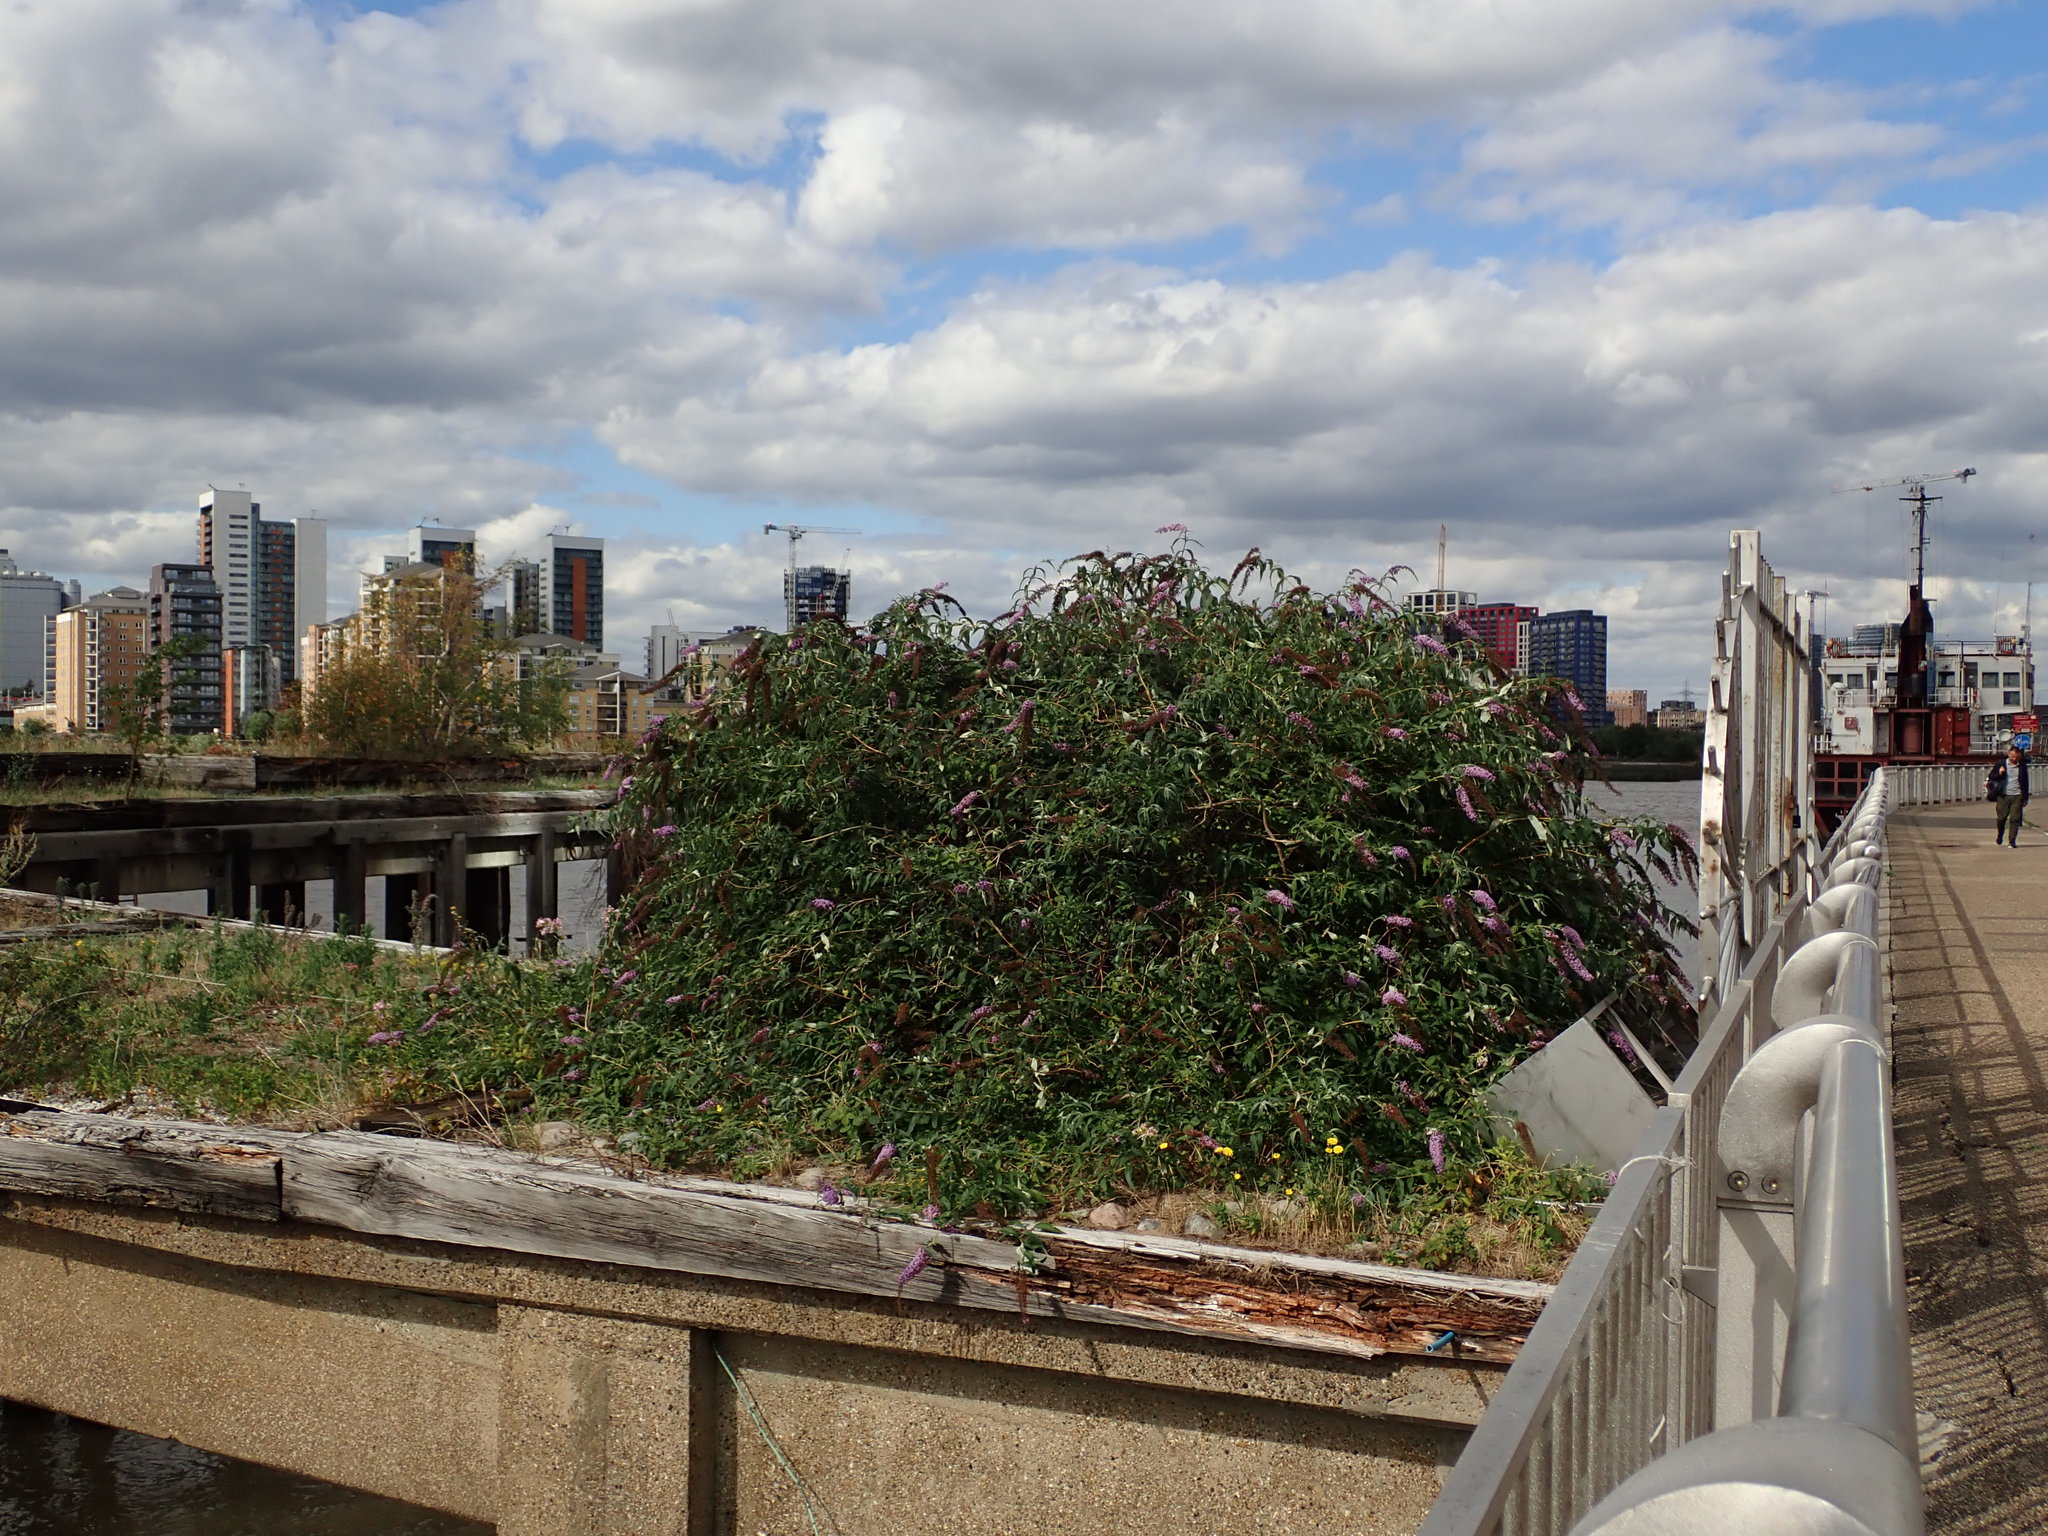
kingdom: Plantae
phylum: Tracheophyta
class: Magnoliopsida
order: Lamiales
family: Scrophulariaceae
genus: Buddleja
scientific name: Buddleja davidii
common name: Butterfly-bush
